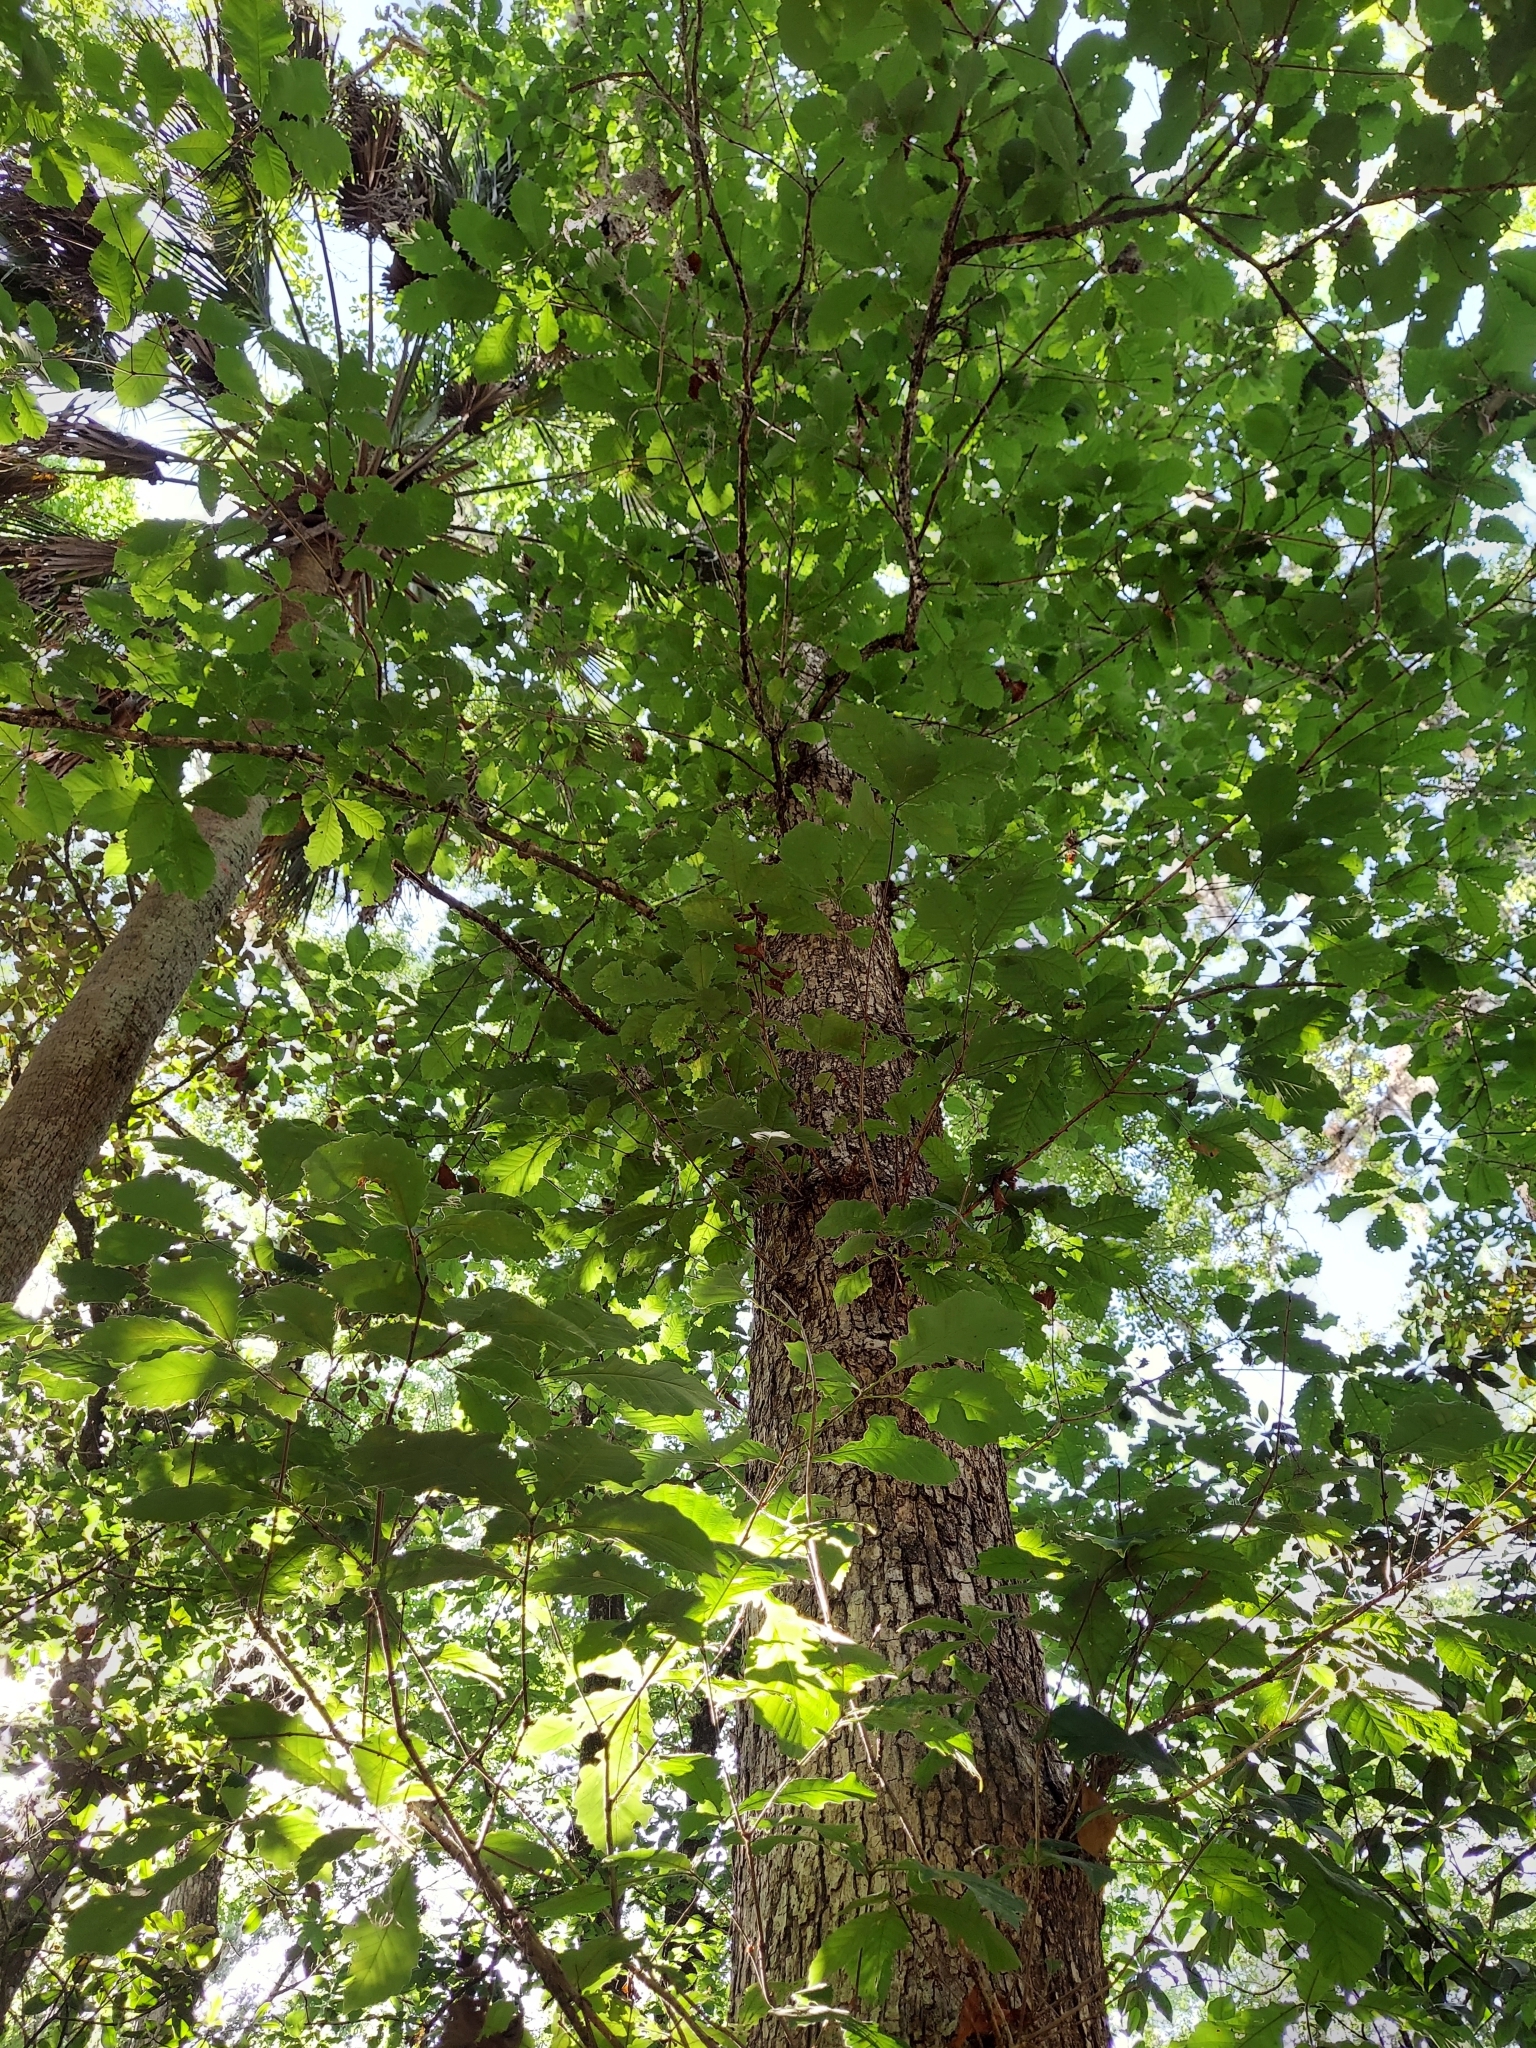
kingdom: Plantae
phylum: Tracheophyta
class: Magnoliopsida
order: Fagales
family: Fagaceae
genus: Quercus
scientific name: Quercus michauxii
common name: Swamp chestnut oak
